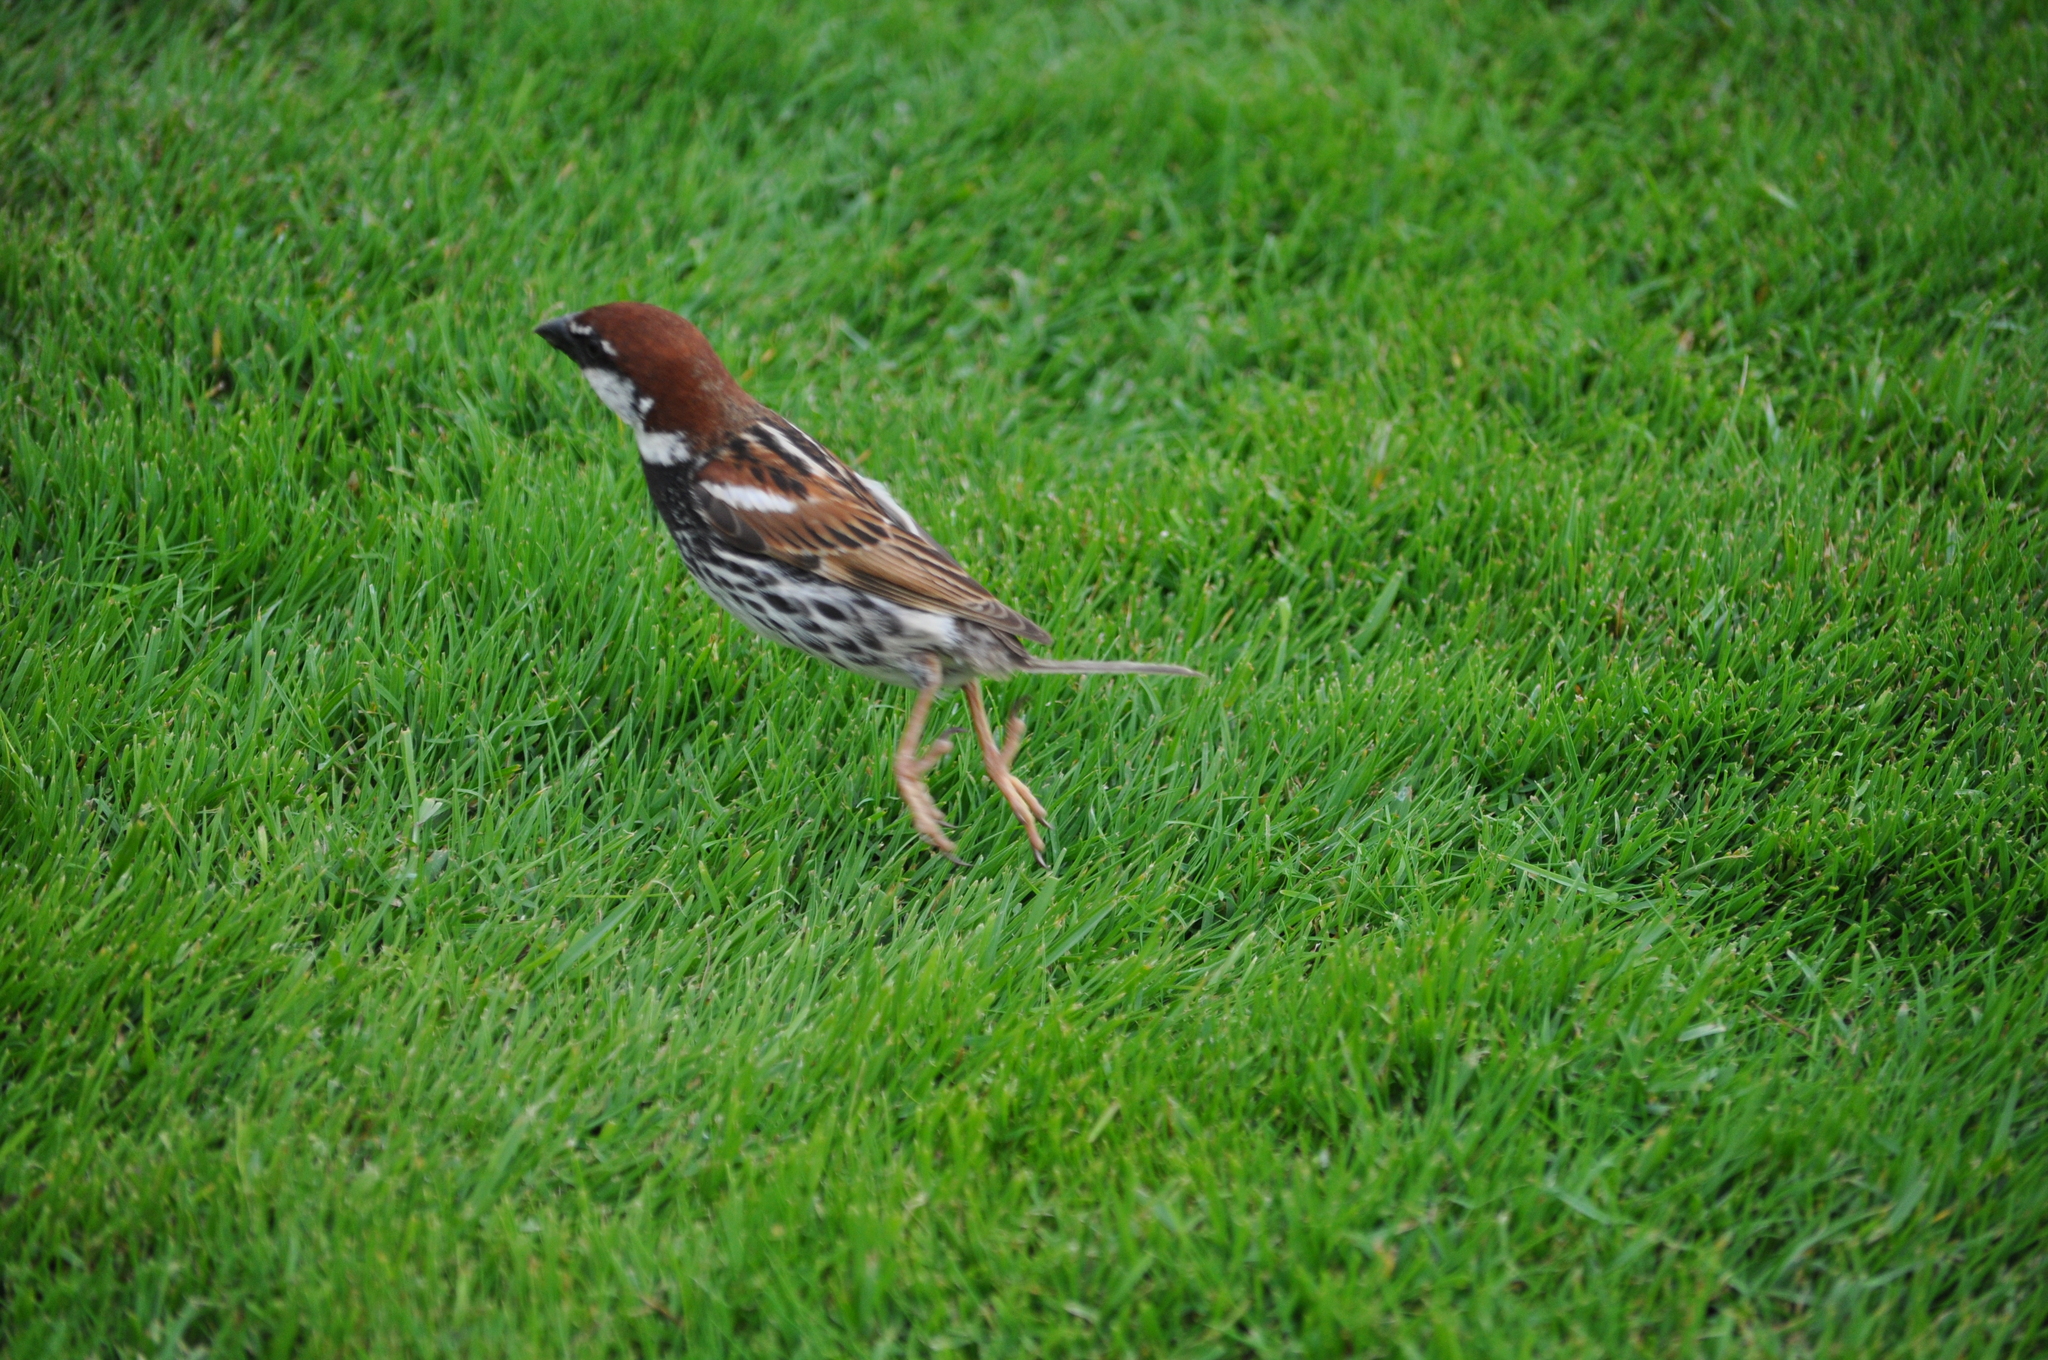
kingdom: Animalia
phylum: Chordata
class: Aves
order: Passeriformes
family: Passeridae
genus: Passer
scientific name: Passer hispaniolensis
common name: Spanish sparrow
